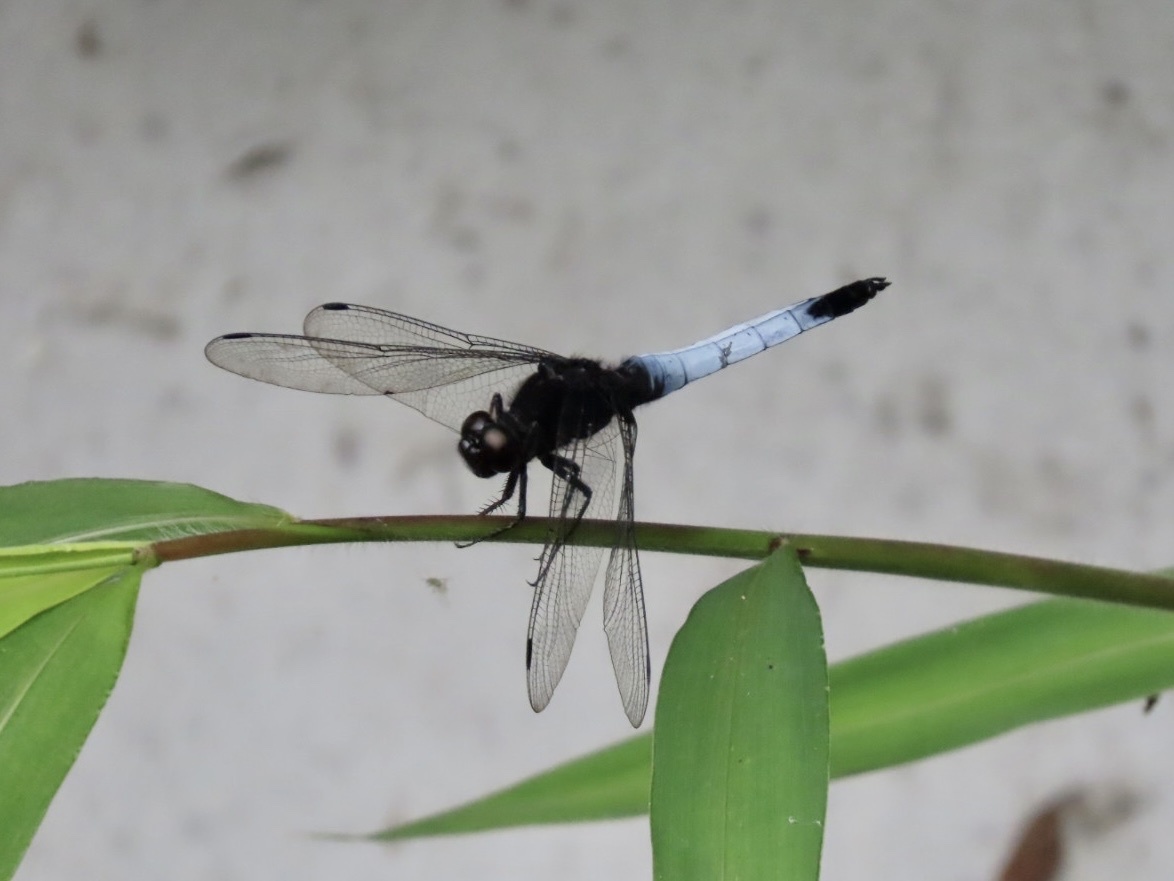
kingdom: Animalia
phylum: Arthropoda
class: Insecta
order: Odonata
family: Libellulidae
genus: Orthetrum
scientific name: Orthetrum triangulare
